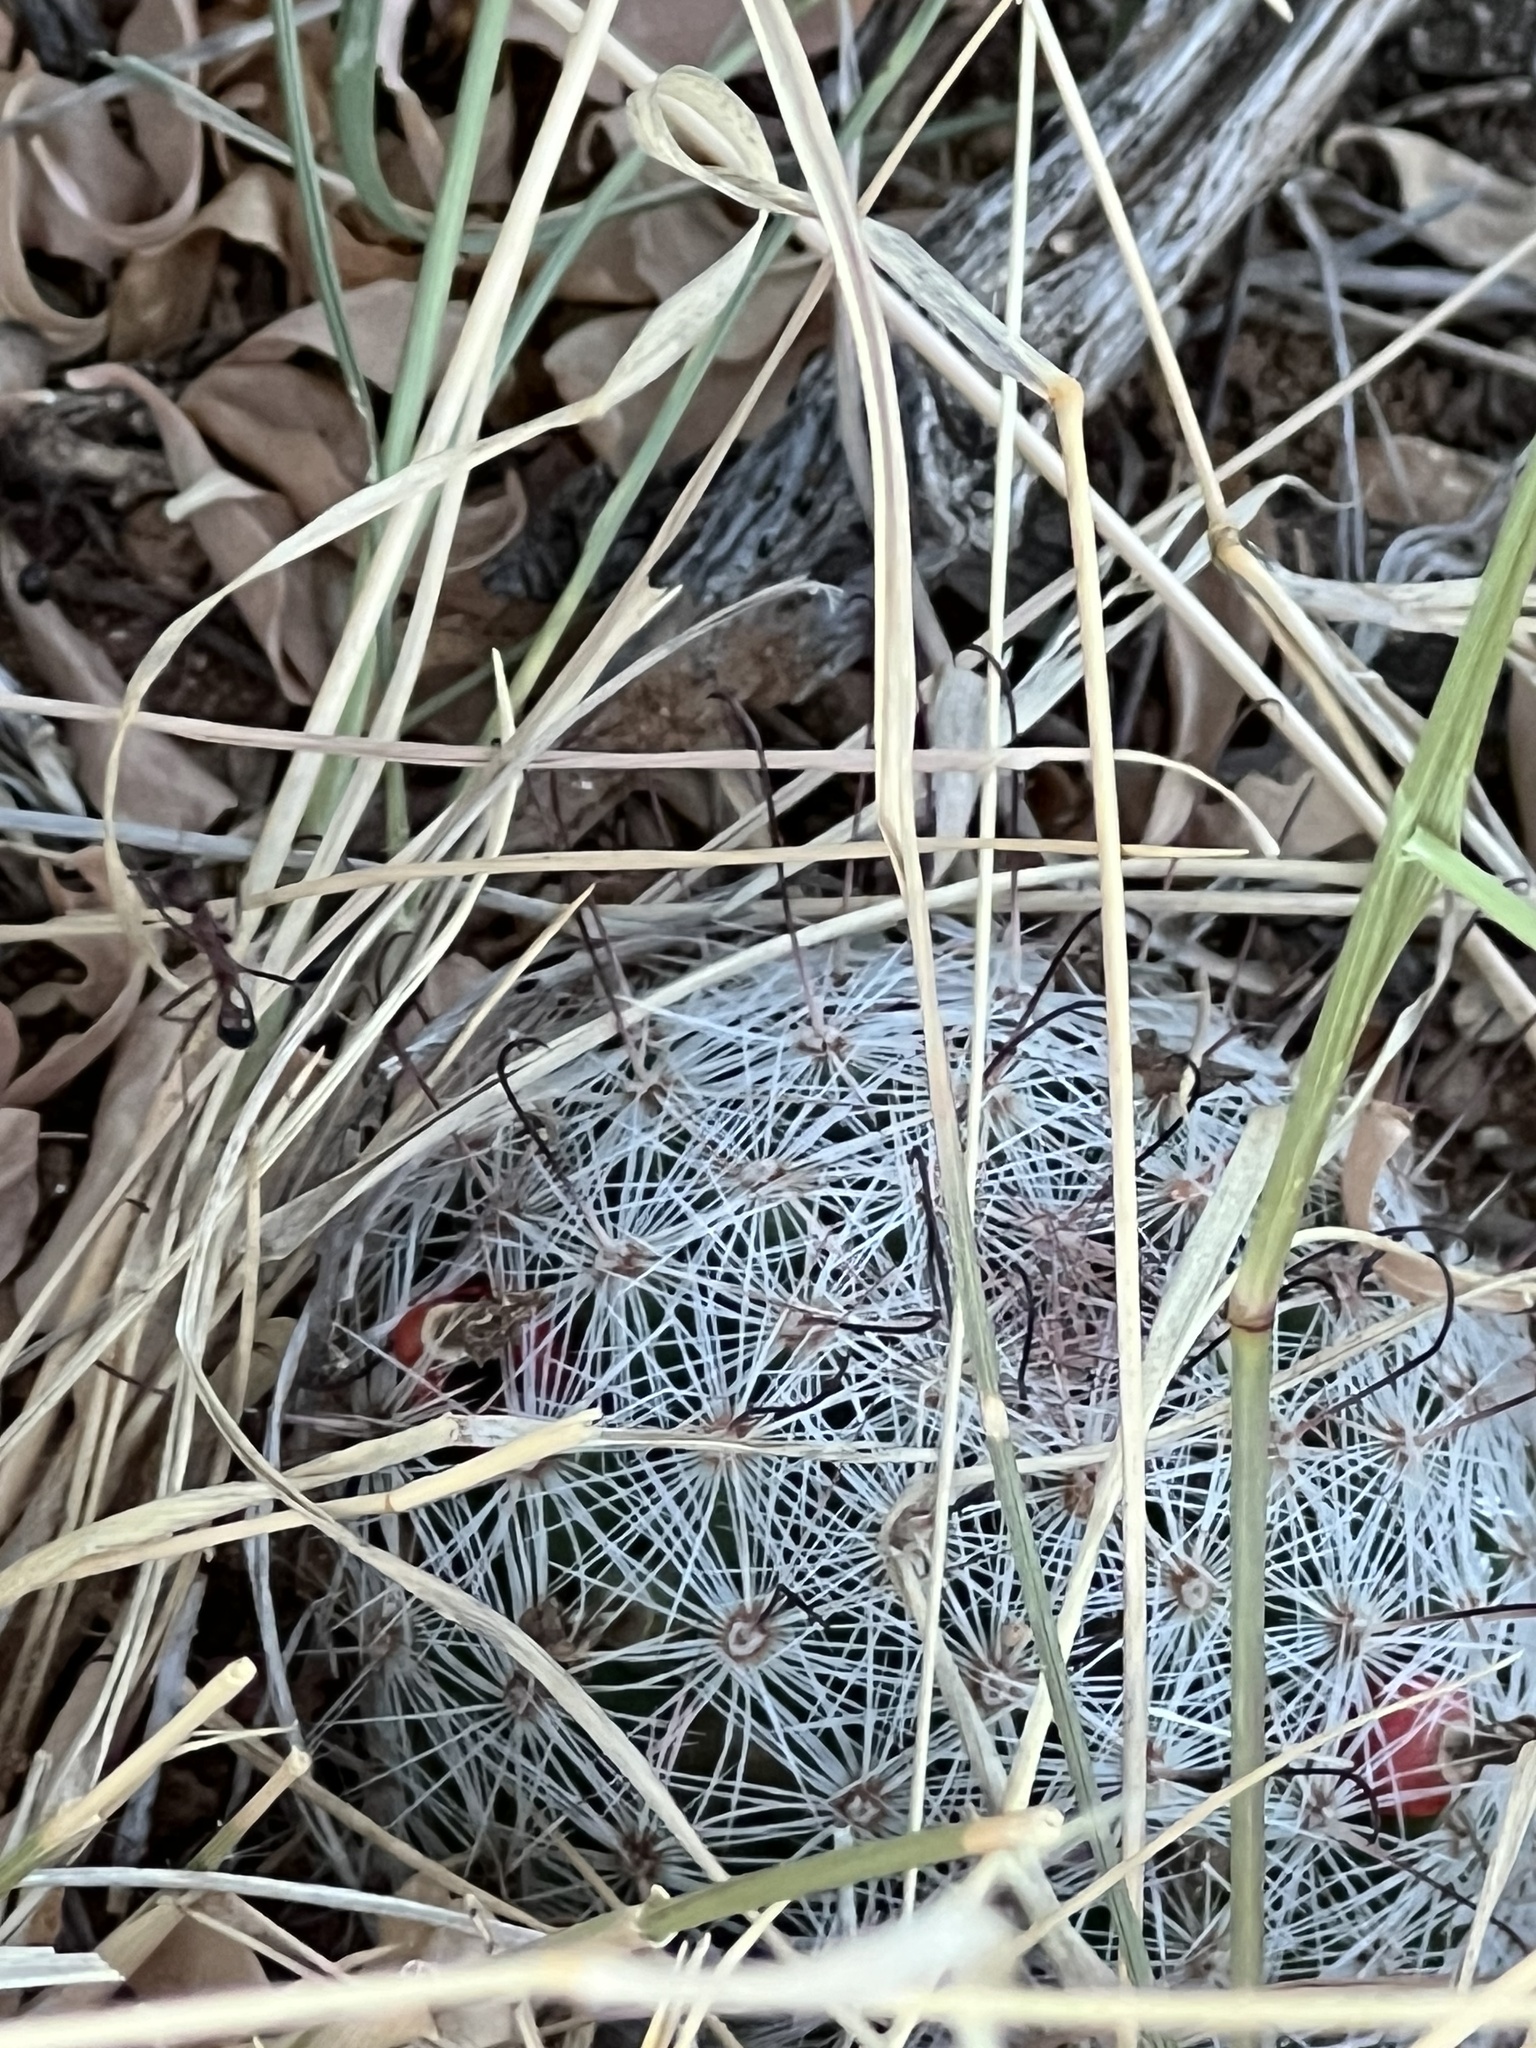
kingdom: Plantae
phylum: Tracheophyta
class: Magnoliopsida
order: Caryophyllales
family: Cactaceae
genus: Cochemiea
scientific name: Cochemiea grahamii
